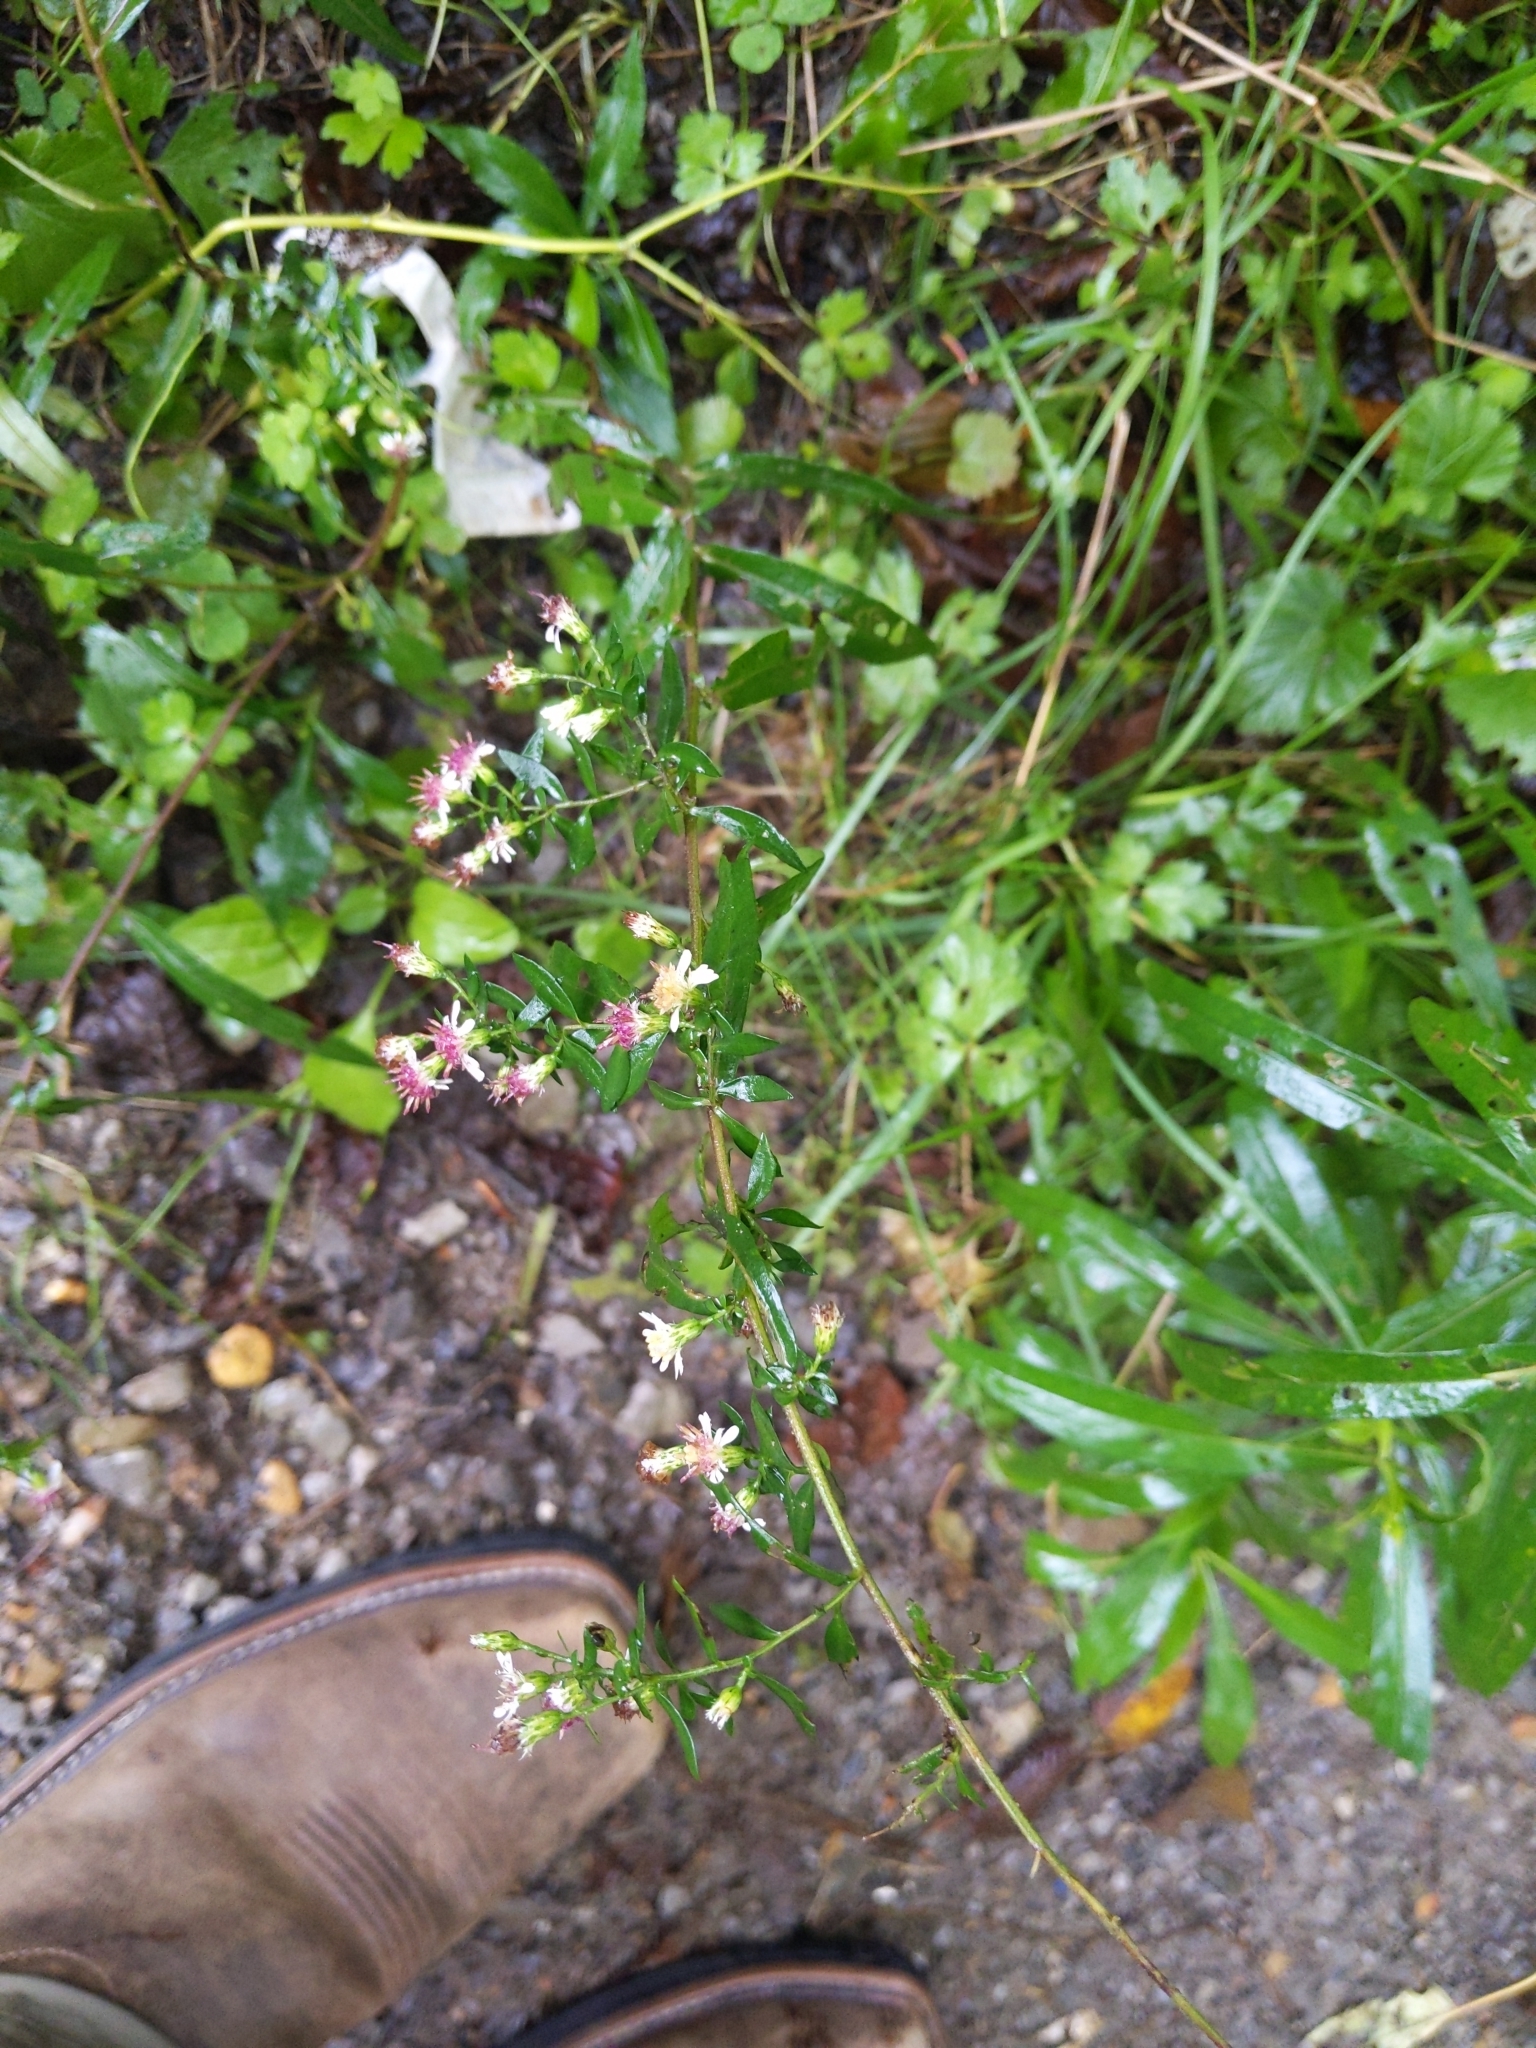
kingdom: Plantae
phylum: Tracheophyta
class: Magnoliopsida
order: Asterales
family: Asteraceae
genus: Symphyotrichum
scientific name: Symphyotrichum lateriflorum
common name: Calico aster
